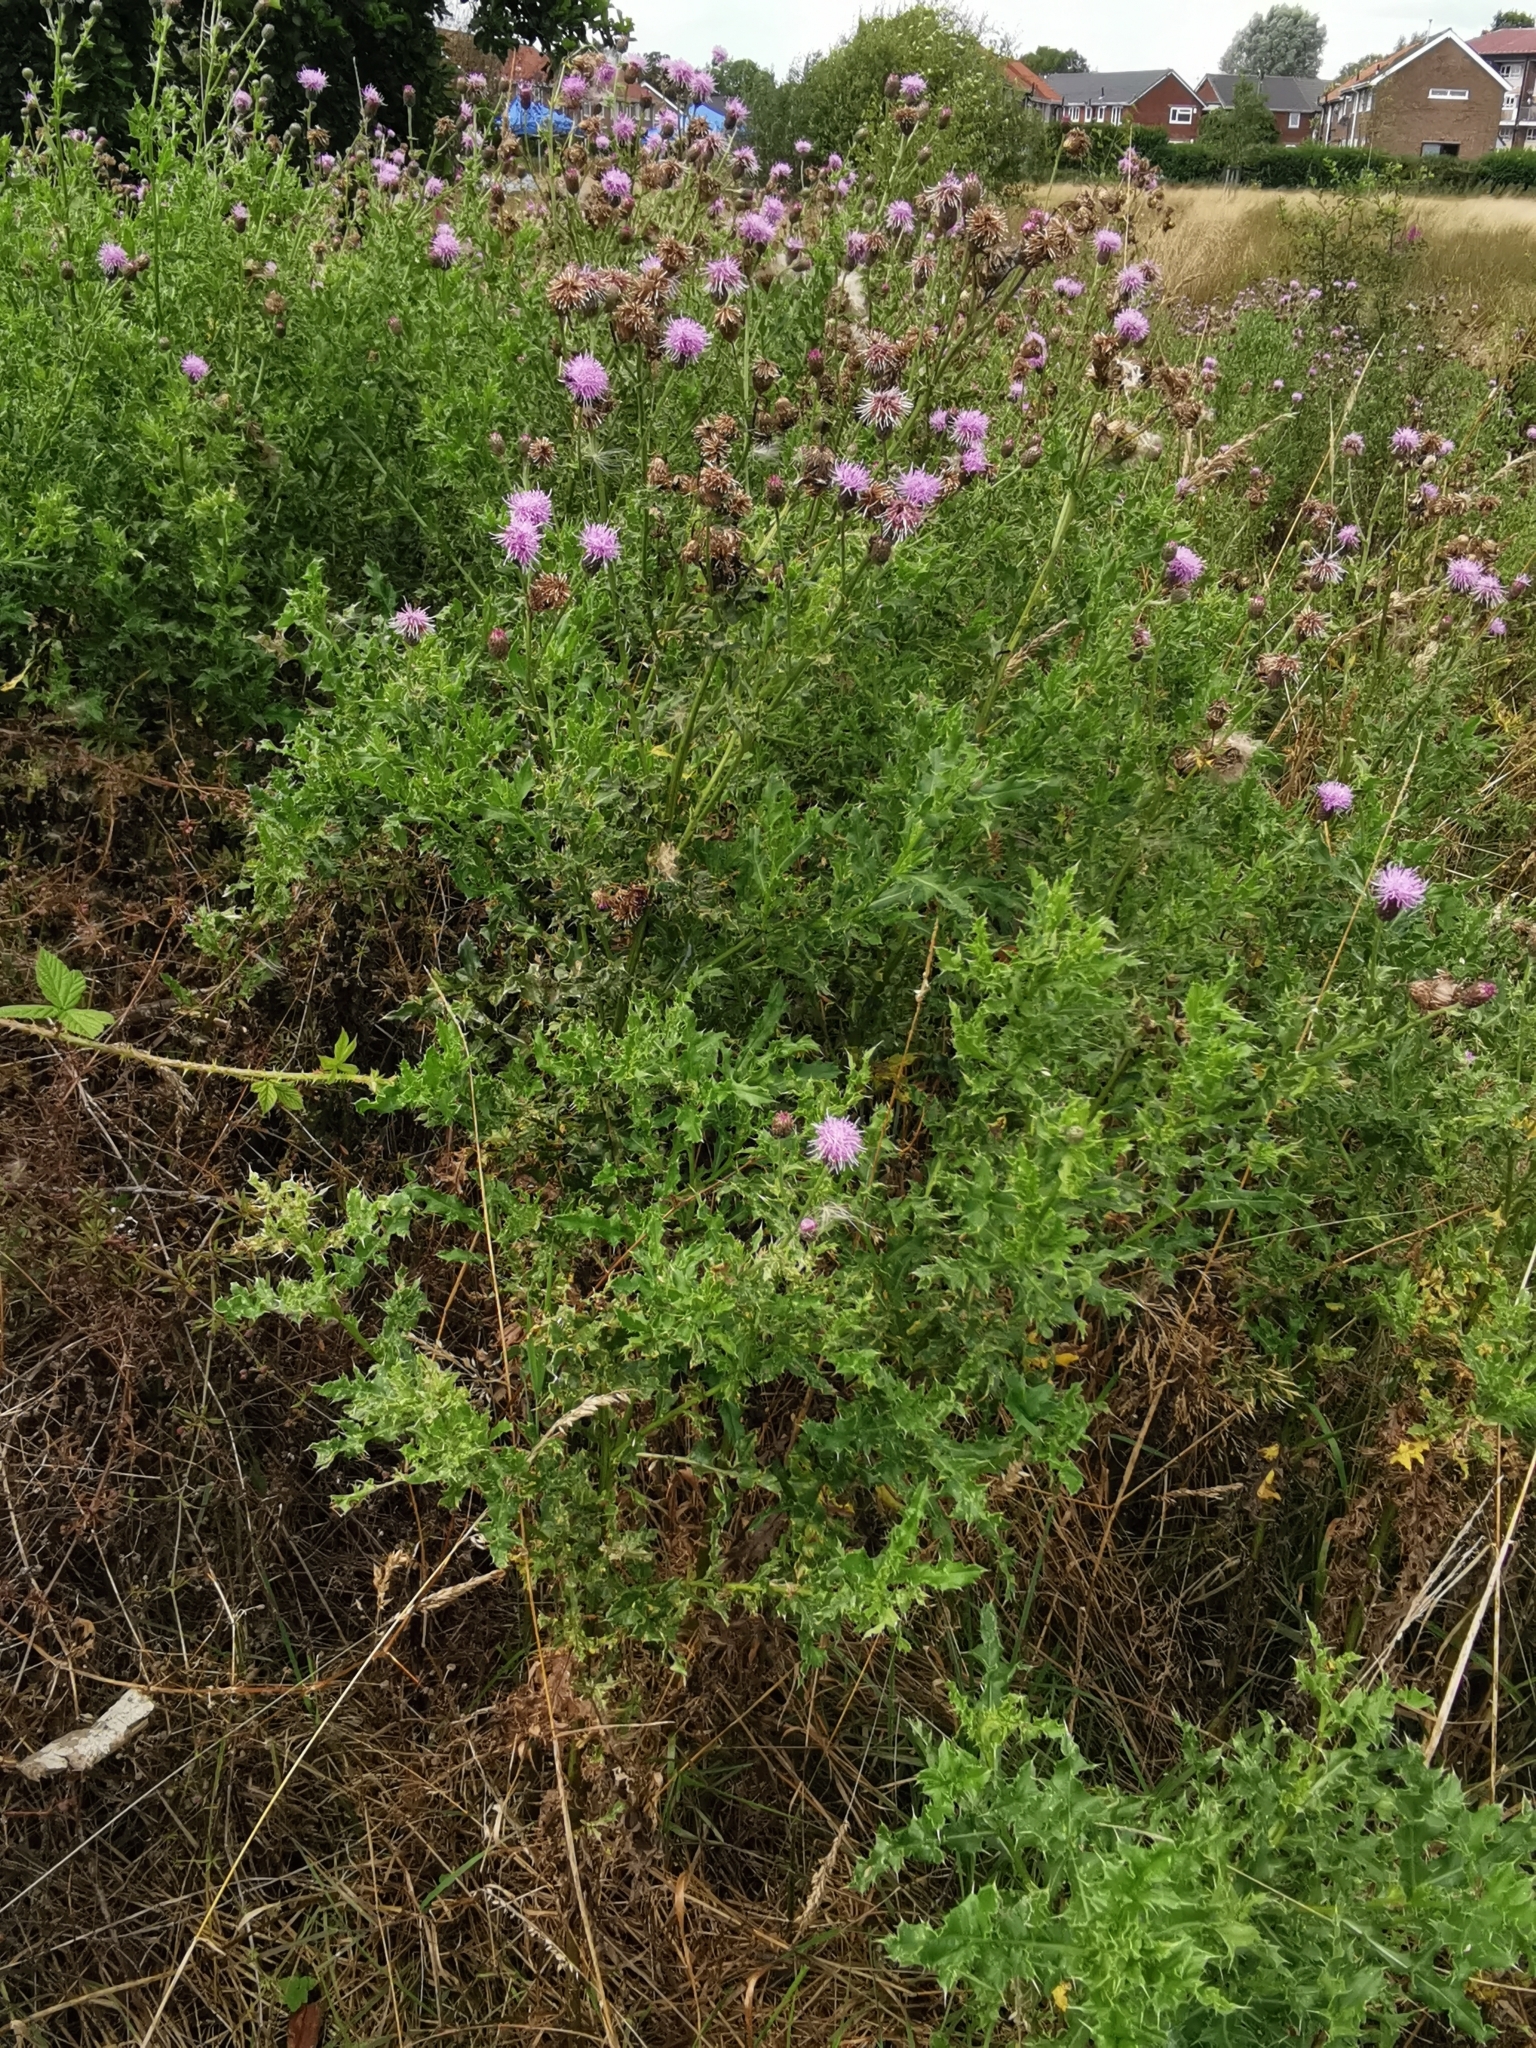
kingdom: Plantae
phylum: Tracheophyta
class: Magnoliopsida
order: Asterales
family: Asteraceae
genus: Cirsium
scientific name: Cirsium arvense
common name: Creeping thistle
